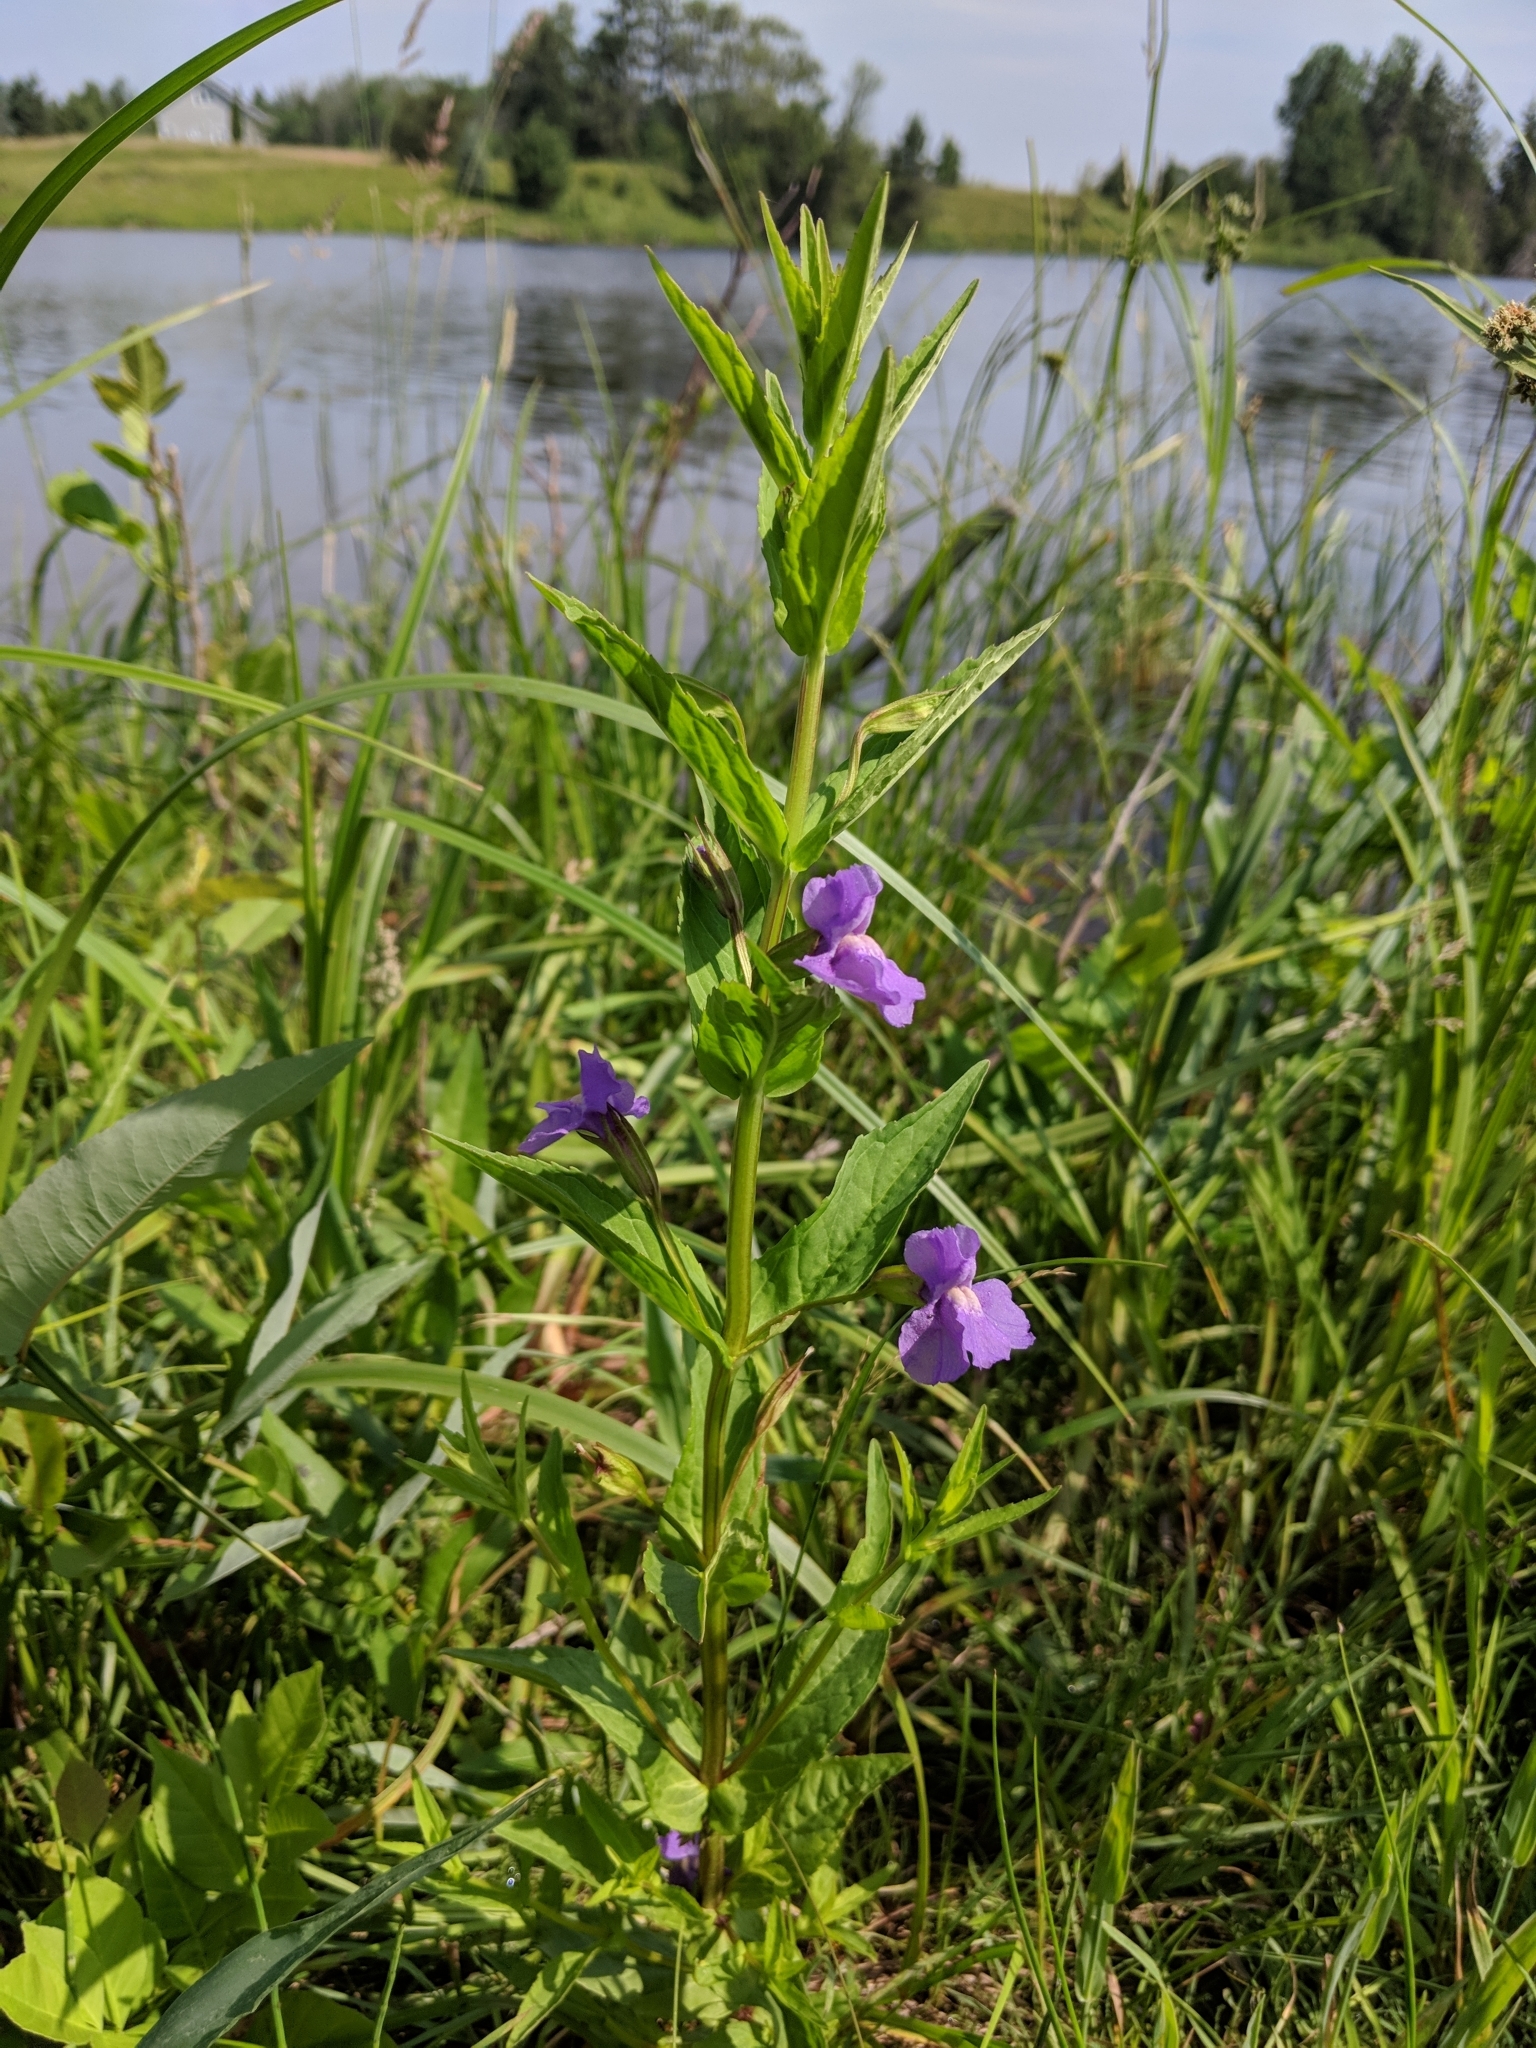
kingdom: Plantae
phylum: Tracheophyta
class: Magnoliopsida
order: Lamiales
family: Phrymaceae
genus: Mimulus
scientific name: Mimulus ringens
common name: Allegheny monkeyflower
